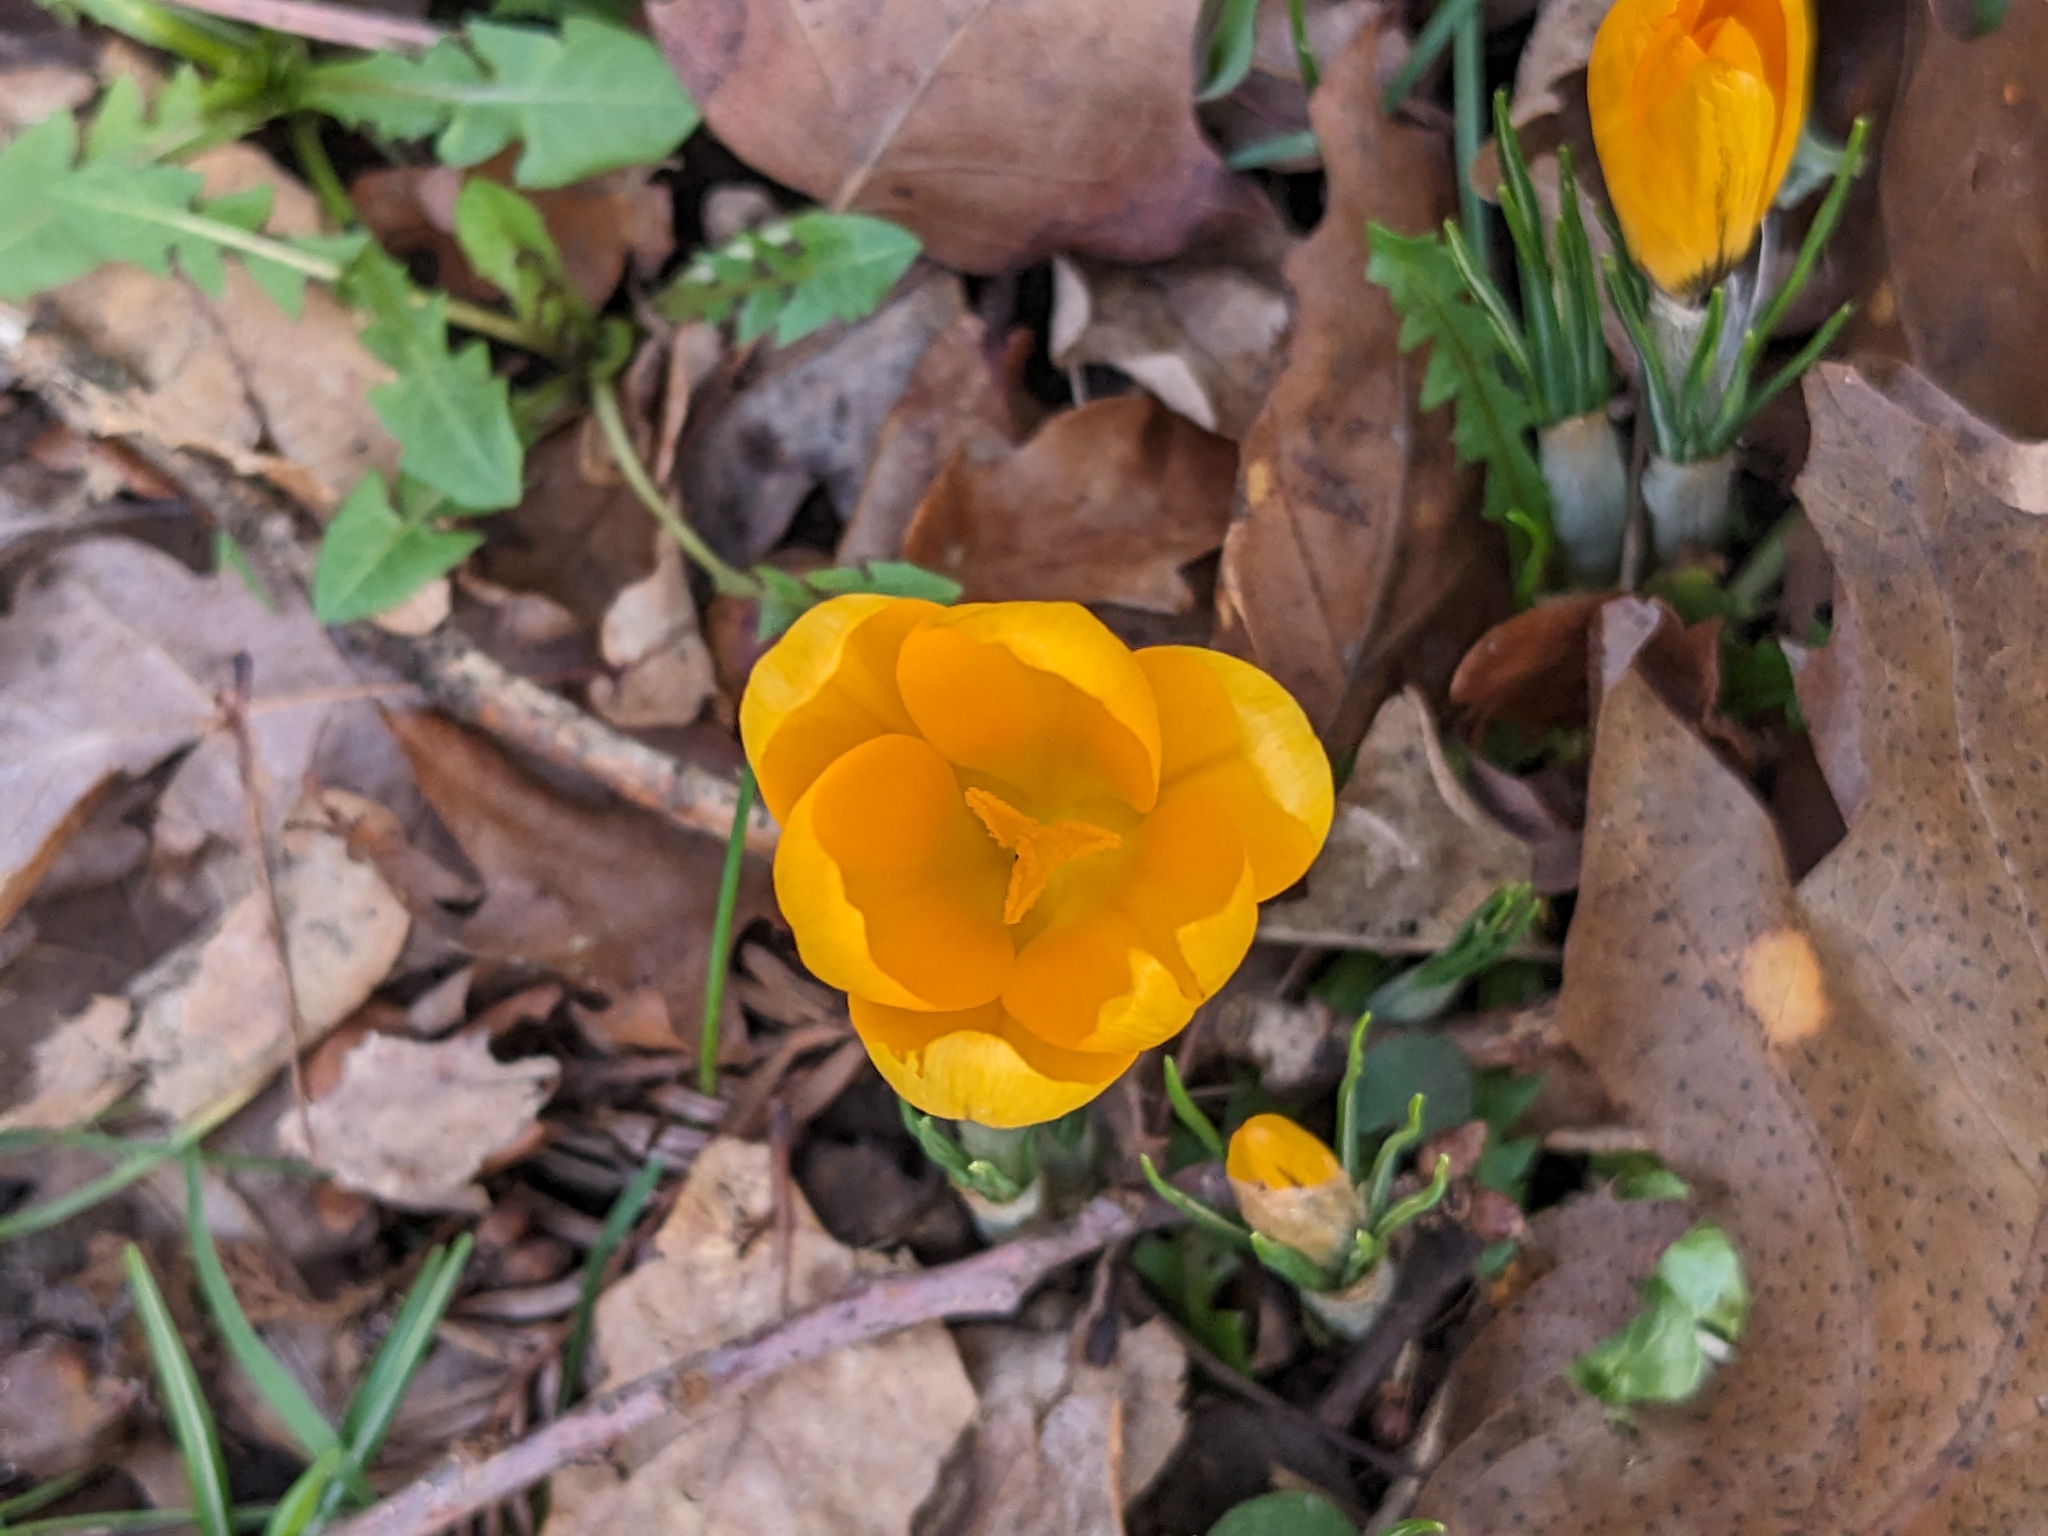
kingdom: Plantae
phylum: Tracheophyta
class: Liliopsida
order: Asparagales
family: Iridaceae
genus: Crocus
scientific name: Crocus luteus
